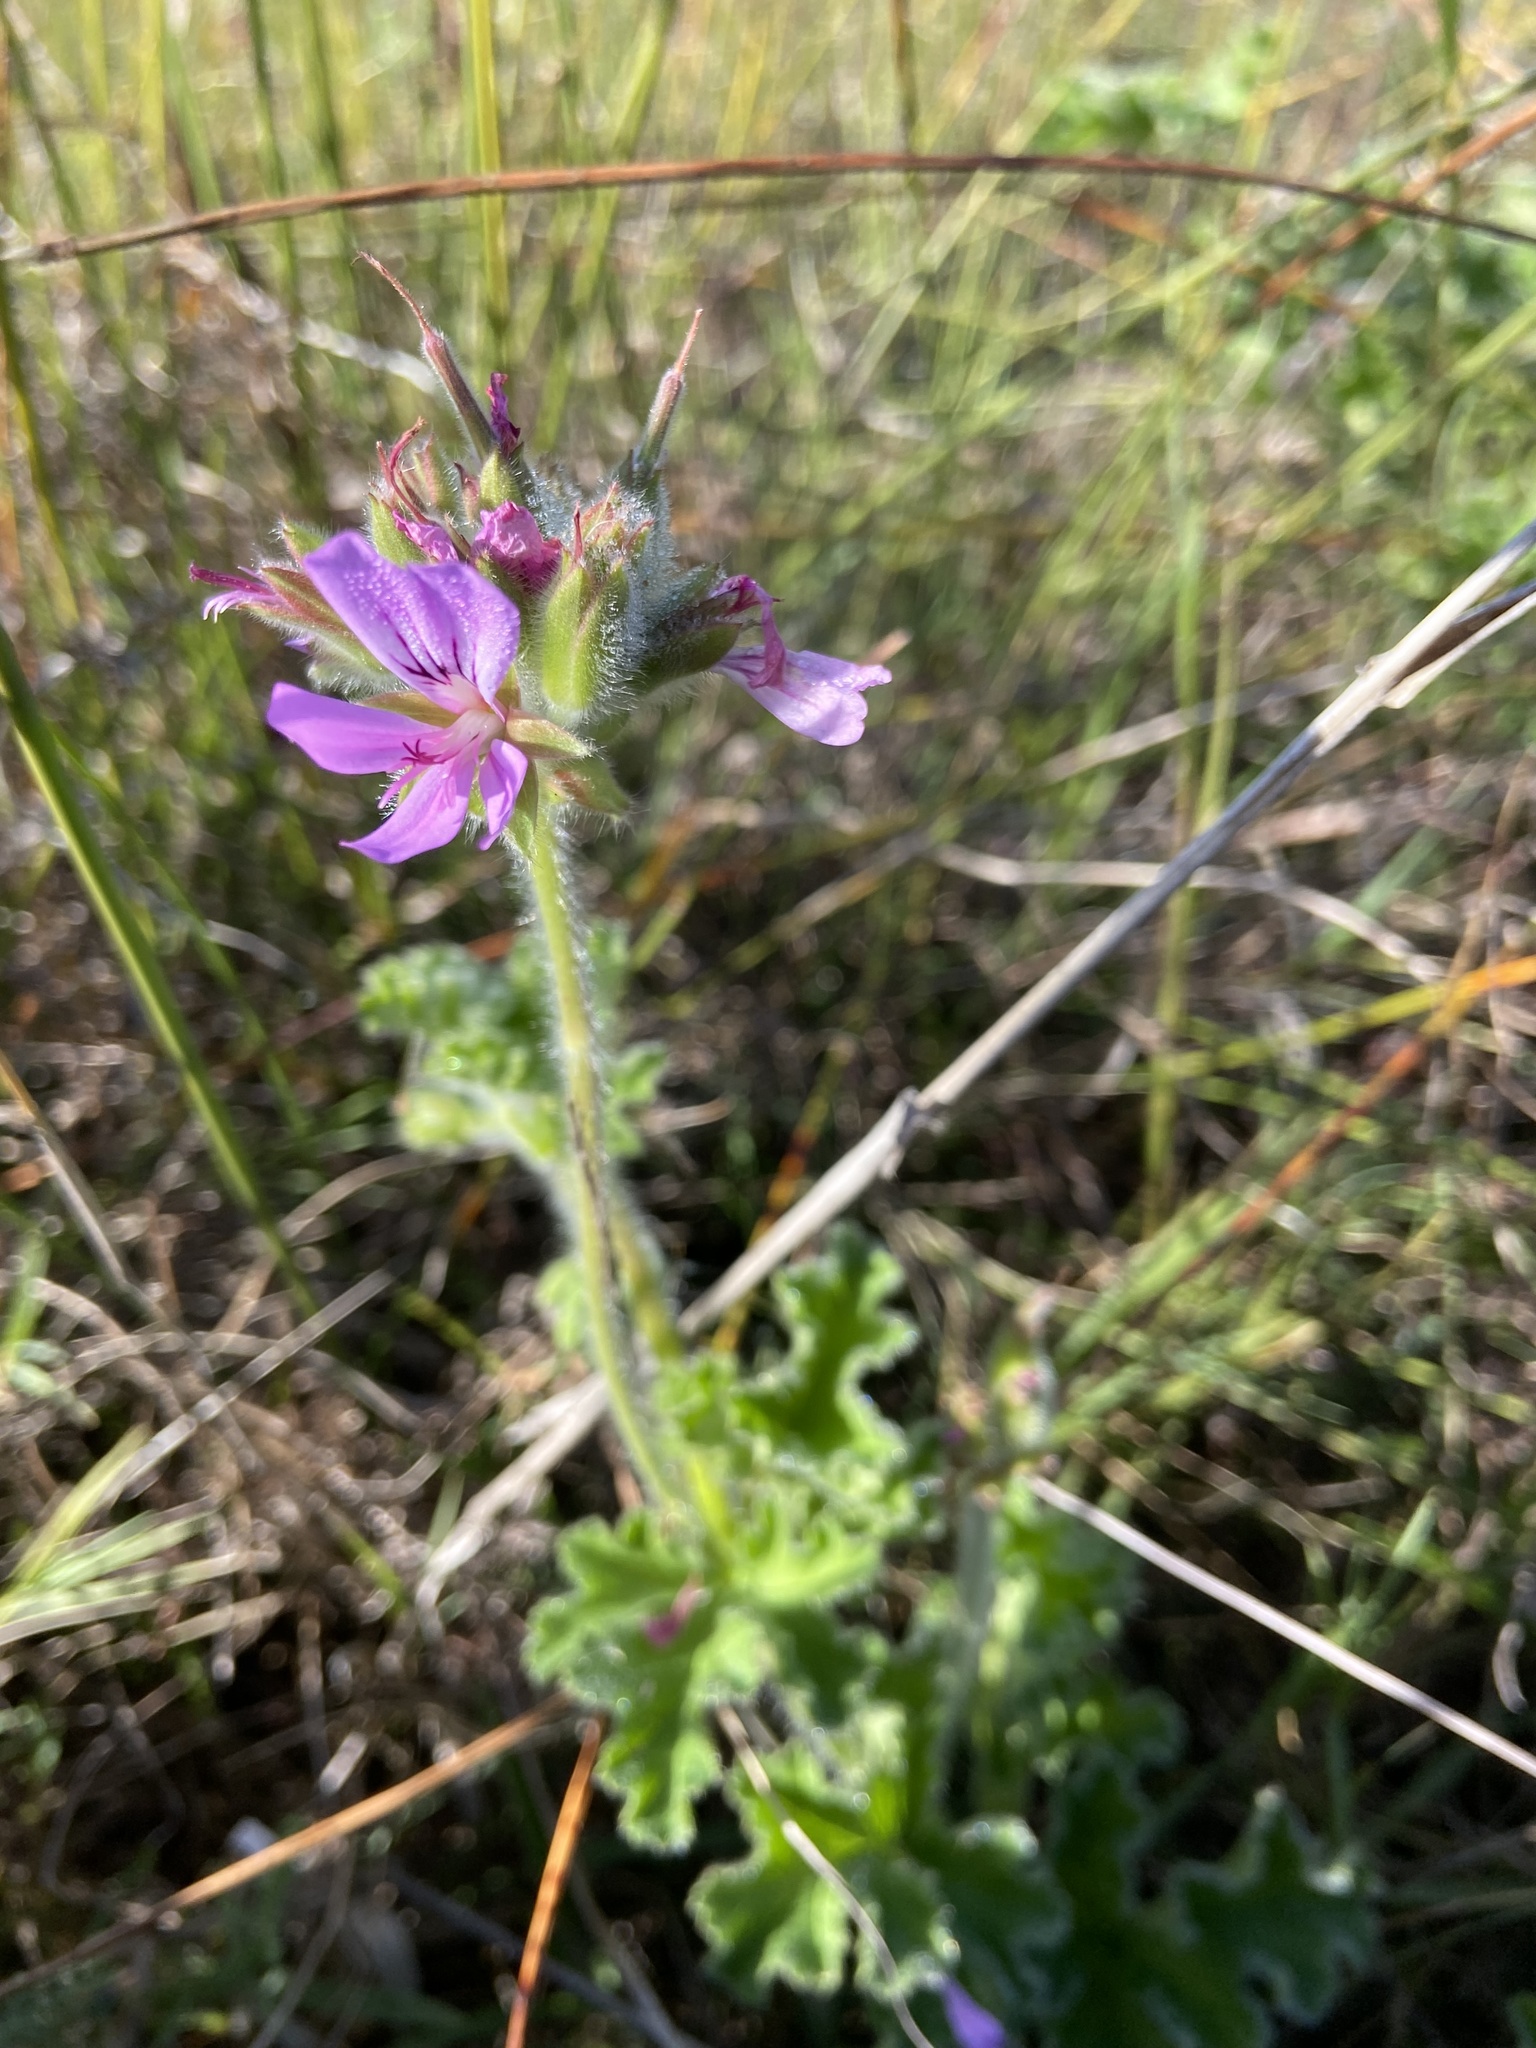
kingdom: Plantae
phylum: Tracheophyta
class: Magnoliopsida
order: Geraniales
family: Geraniaceae
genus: Pelargonium
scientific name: Pelargonium capitatum
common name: Rose scented geranium
